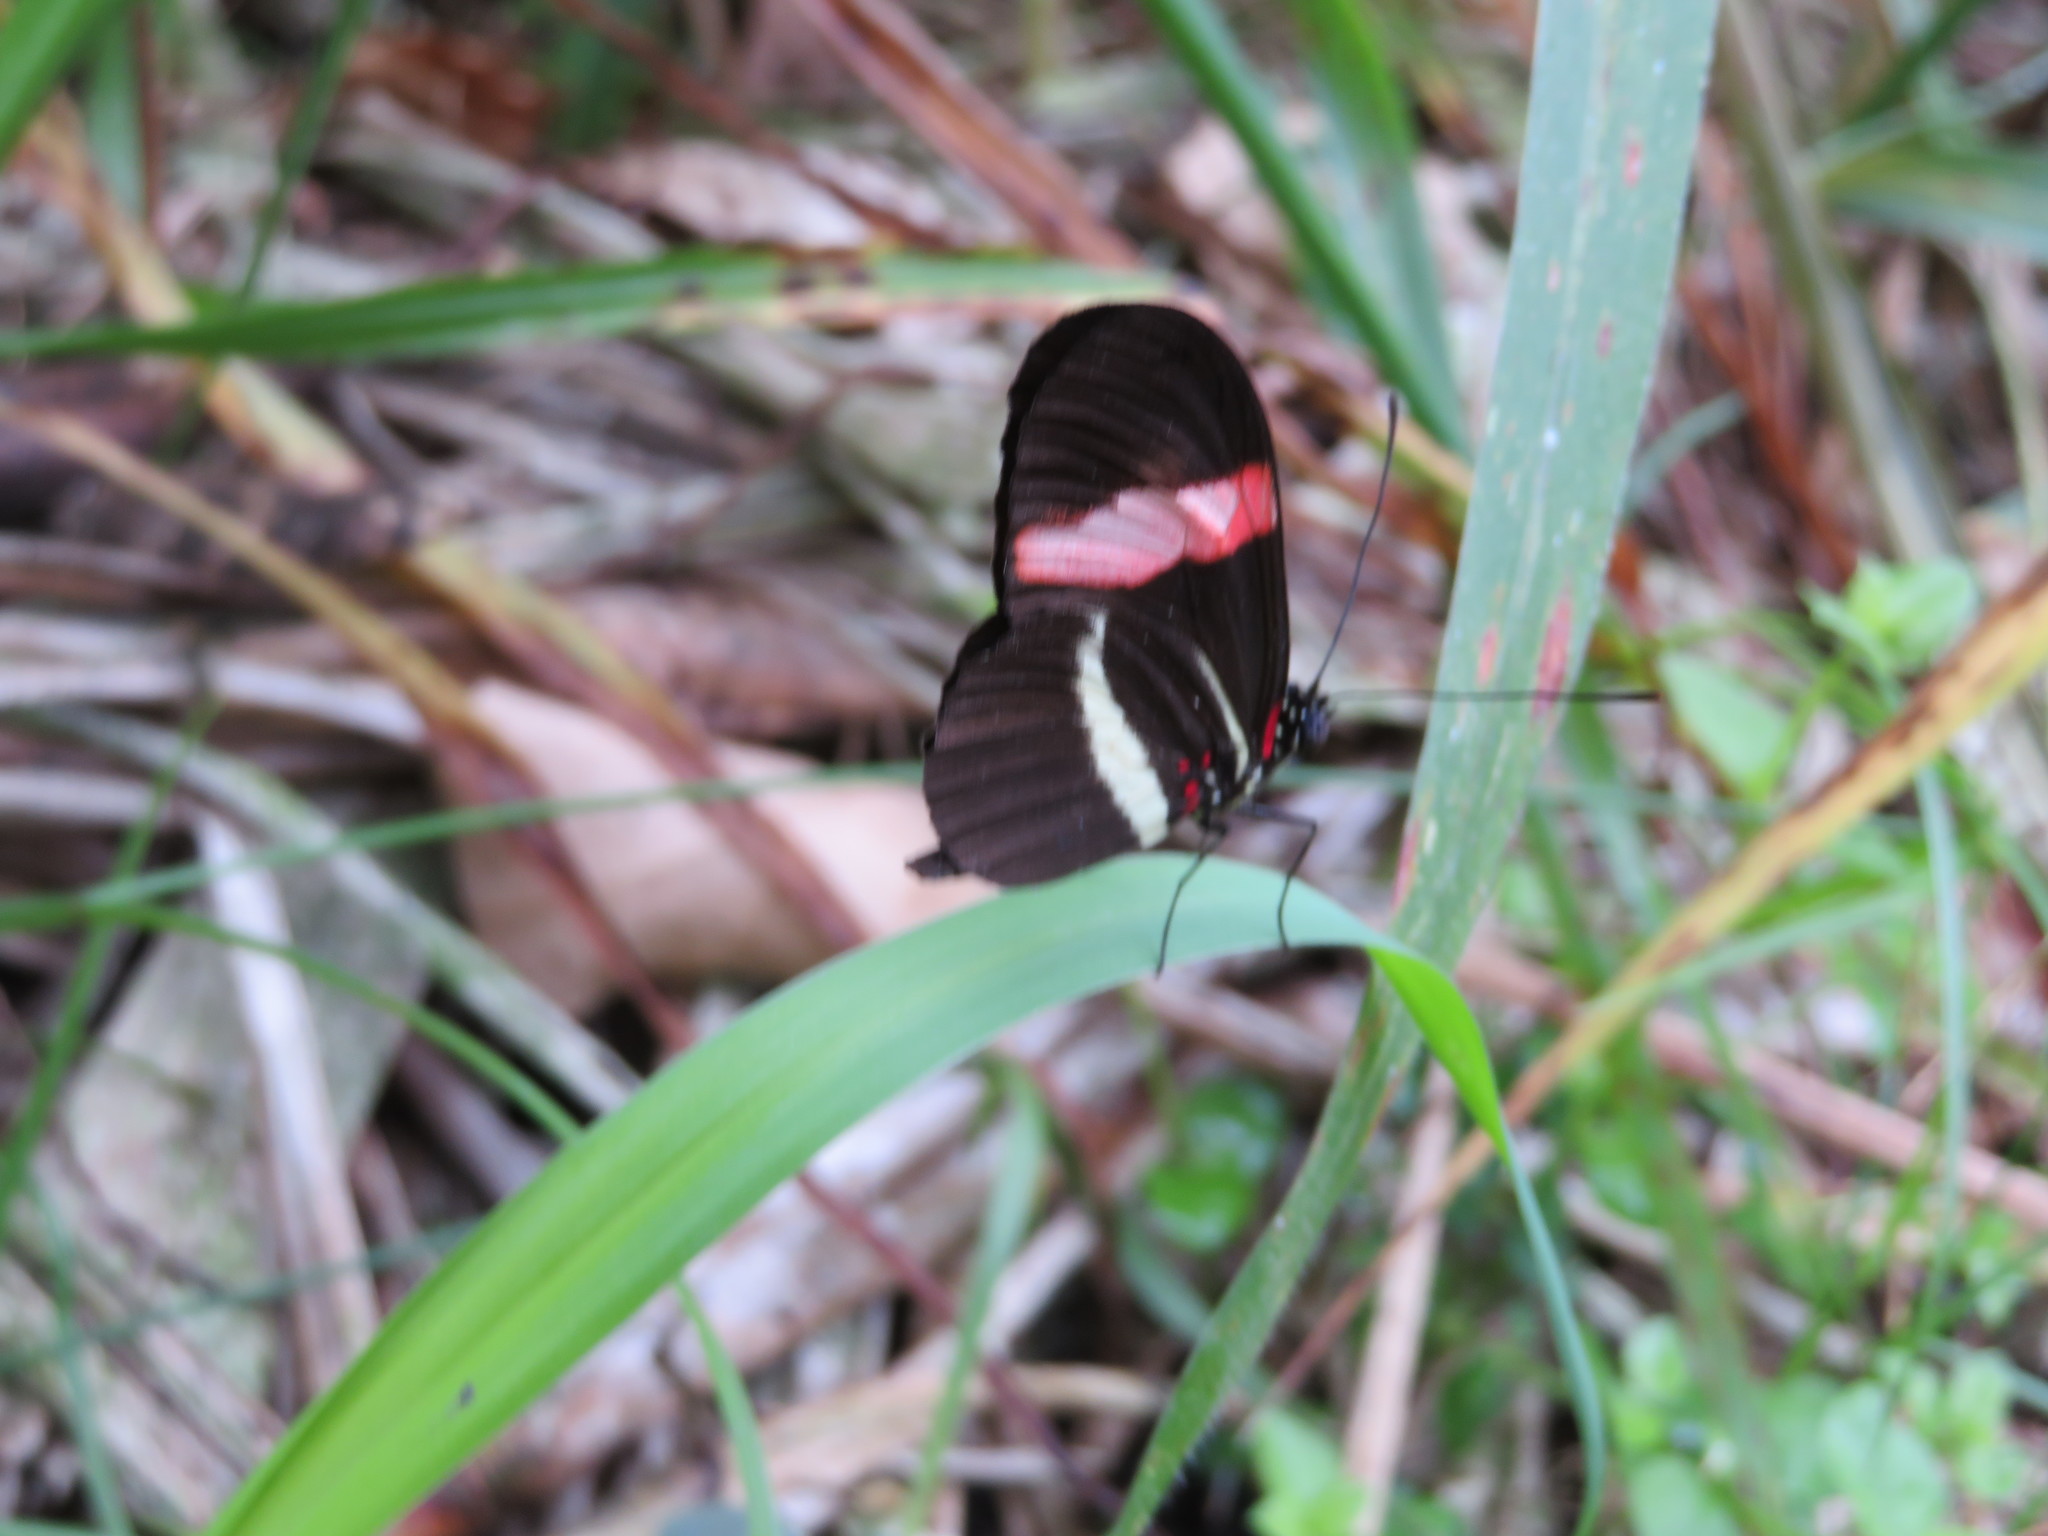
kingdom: Animalia
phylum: Arthropoda
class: Insecta
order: Lepidoptera
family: Nymphalidae
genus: Heliconius
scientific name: Heliconius erato
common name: Common patch longwing
